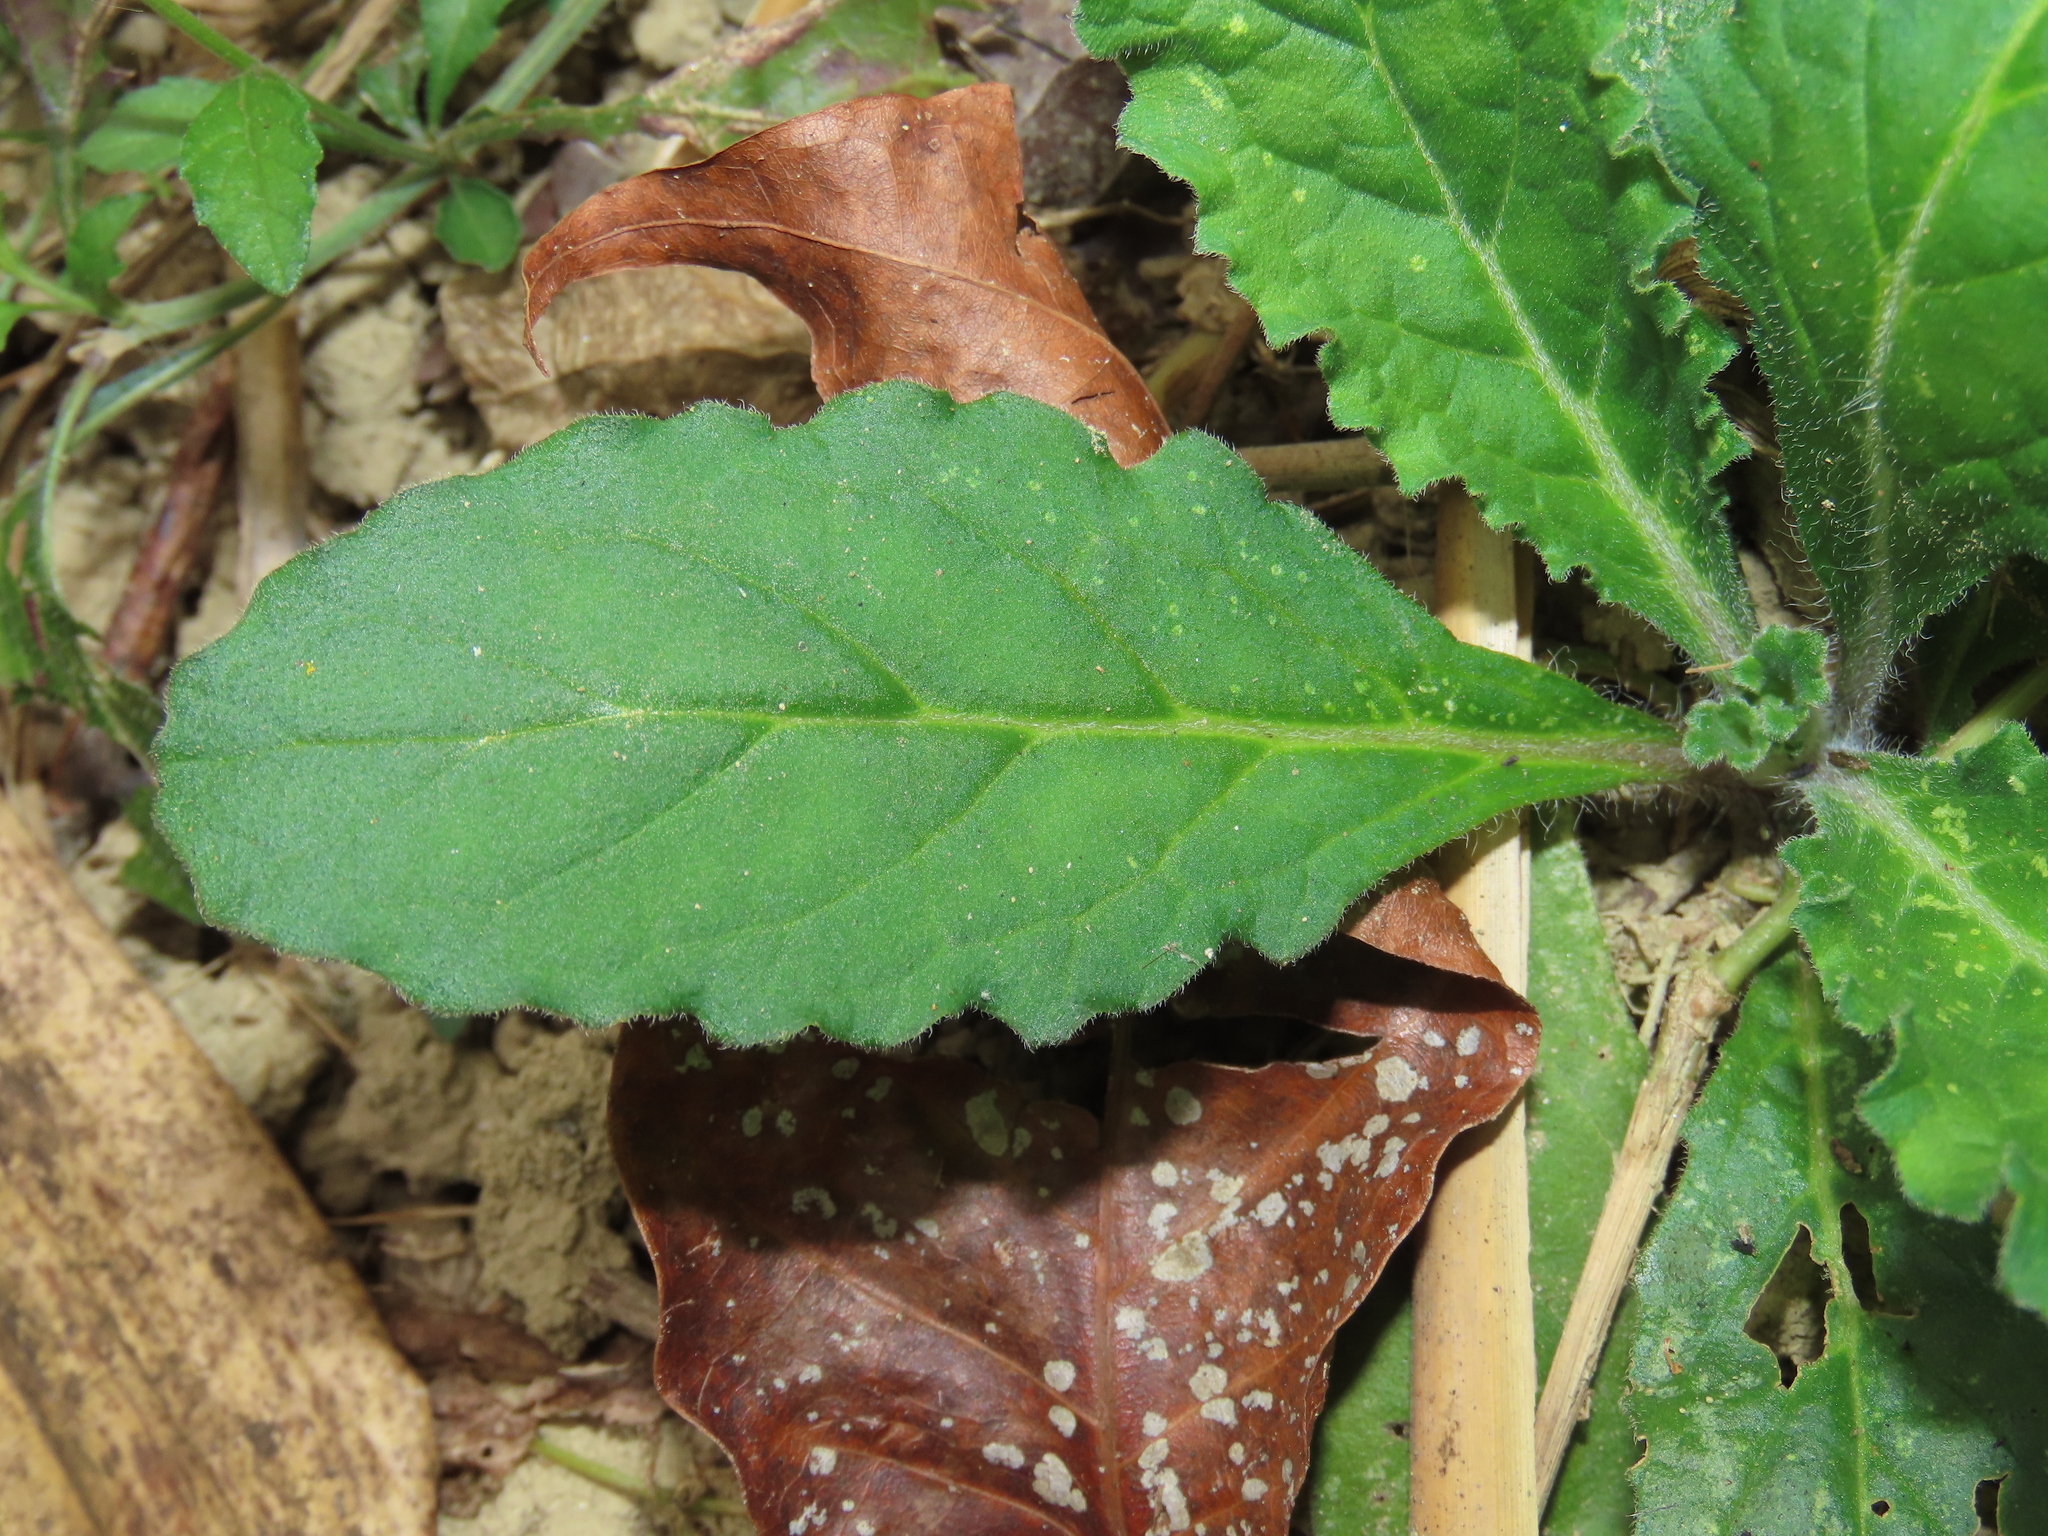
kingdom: Plantae
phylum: Tracheophyta
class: Magnoliopsida
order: Lamiales
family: Lamiaceae
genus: Ajuga
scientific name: Ajuga taiwanensis
